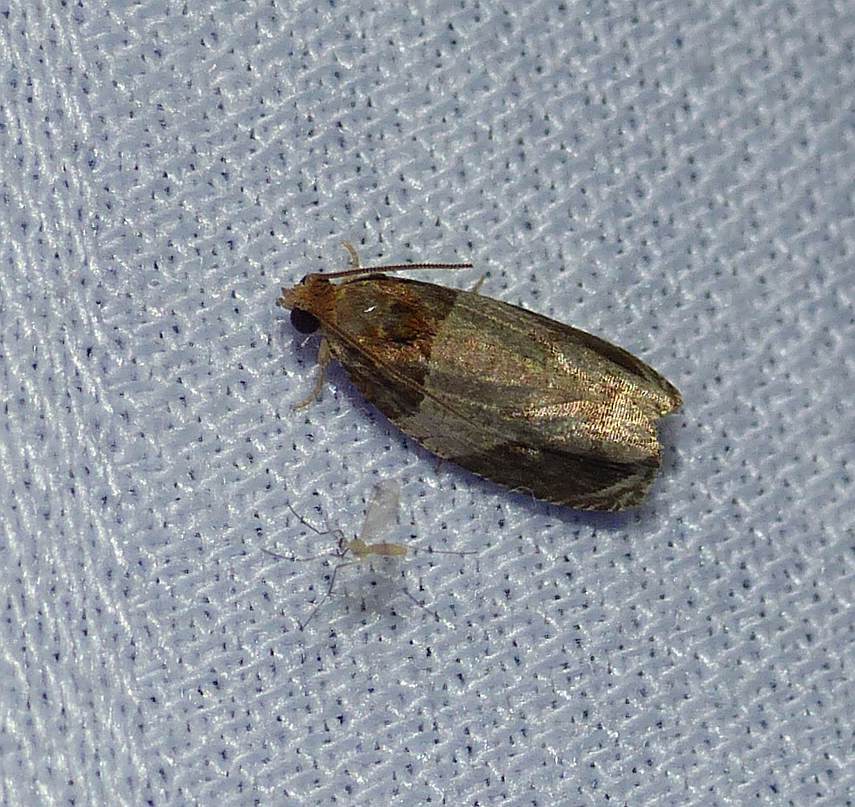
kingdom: Animalia
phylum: Arthropoda
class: Insecta
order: Lepidoptera
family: Tortricidae
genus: Olethreutes
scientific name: Olethreutes ferriferana
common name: Hydrangea leaftier moth
